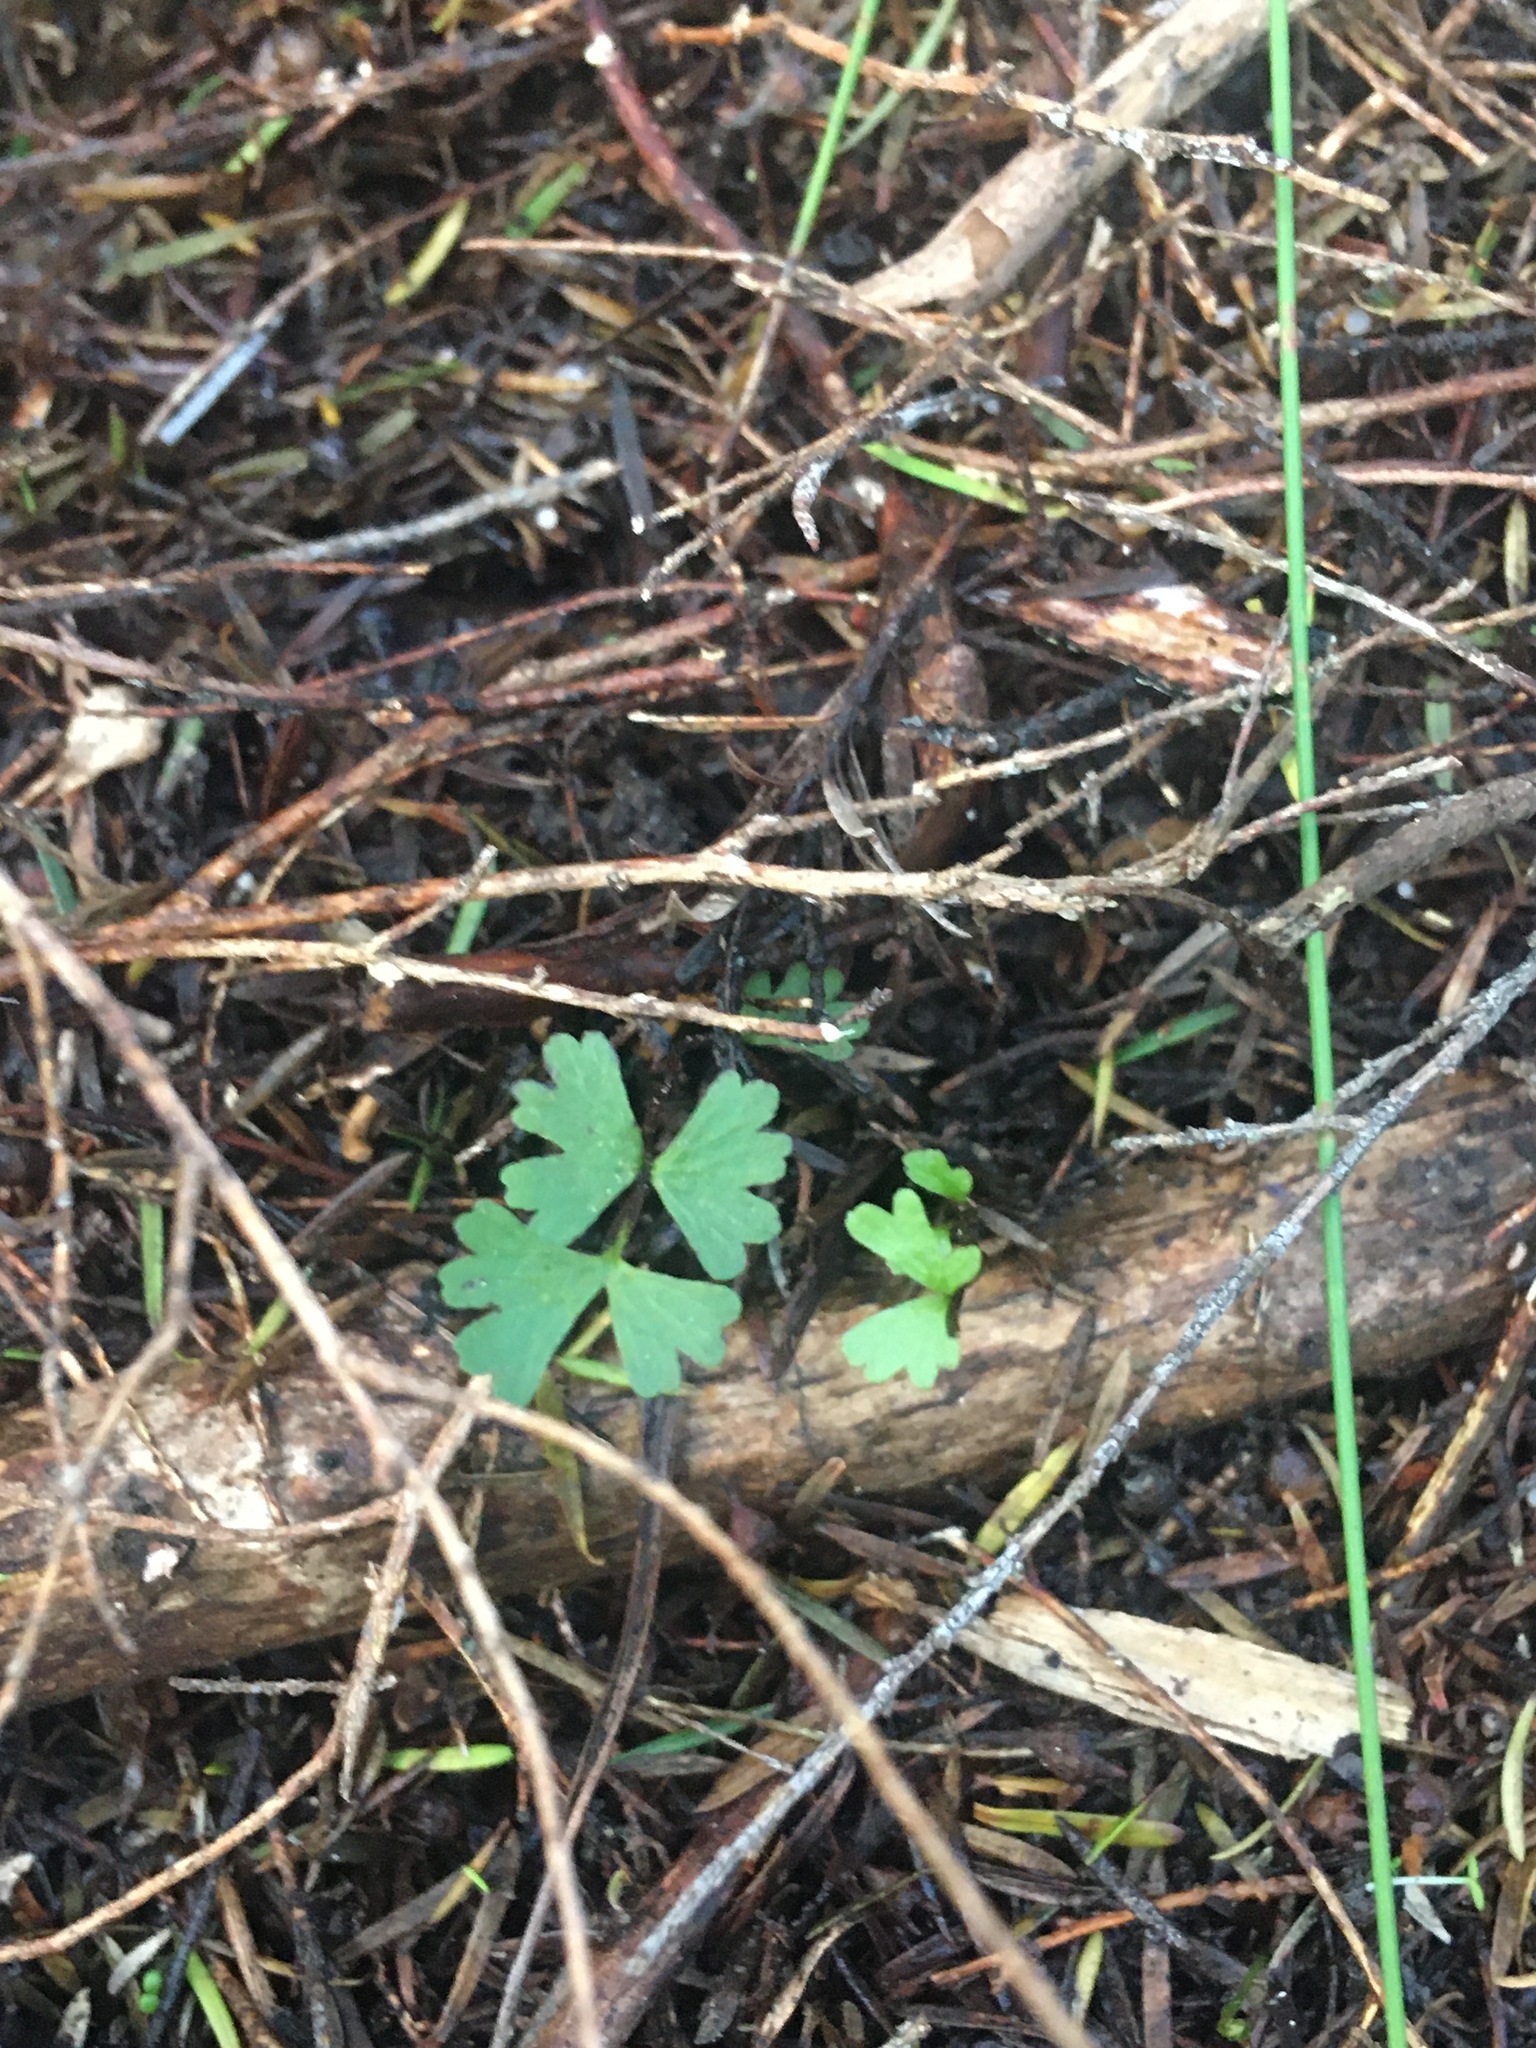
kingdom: Plantae
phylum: Tracheophyta
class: Polypodiopsida
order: Polypodiales
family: Lindsaeaceae
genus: Lindsaea
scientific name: Lindsaea linearis
